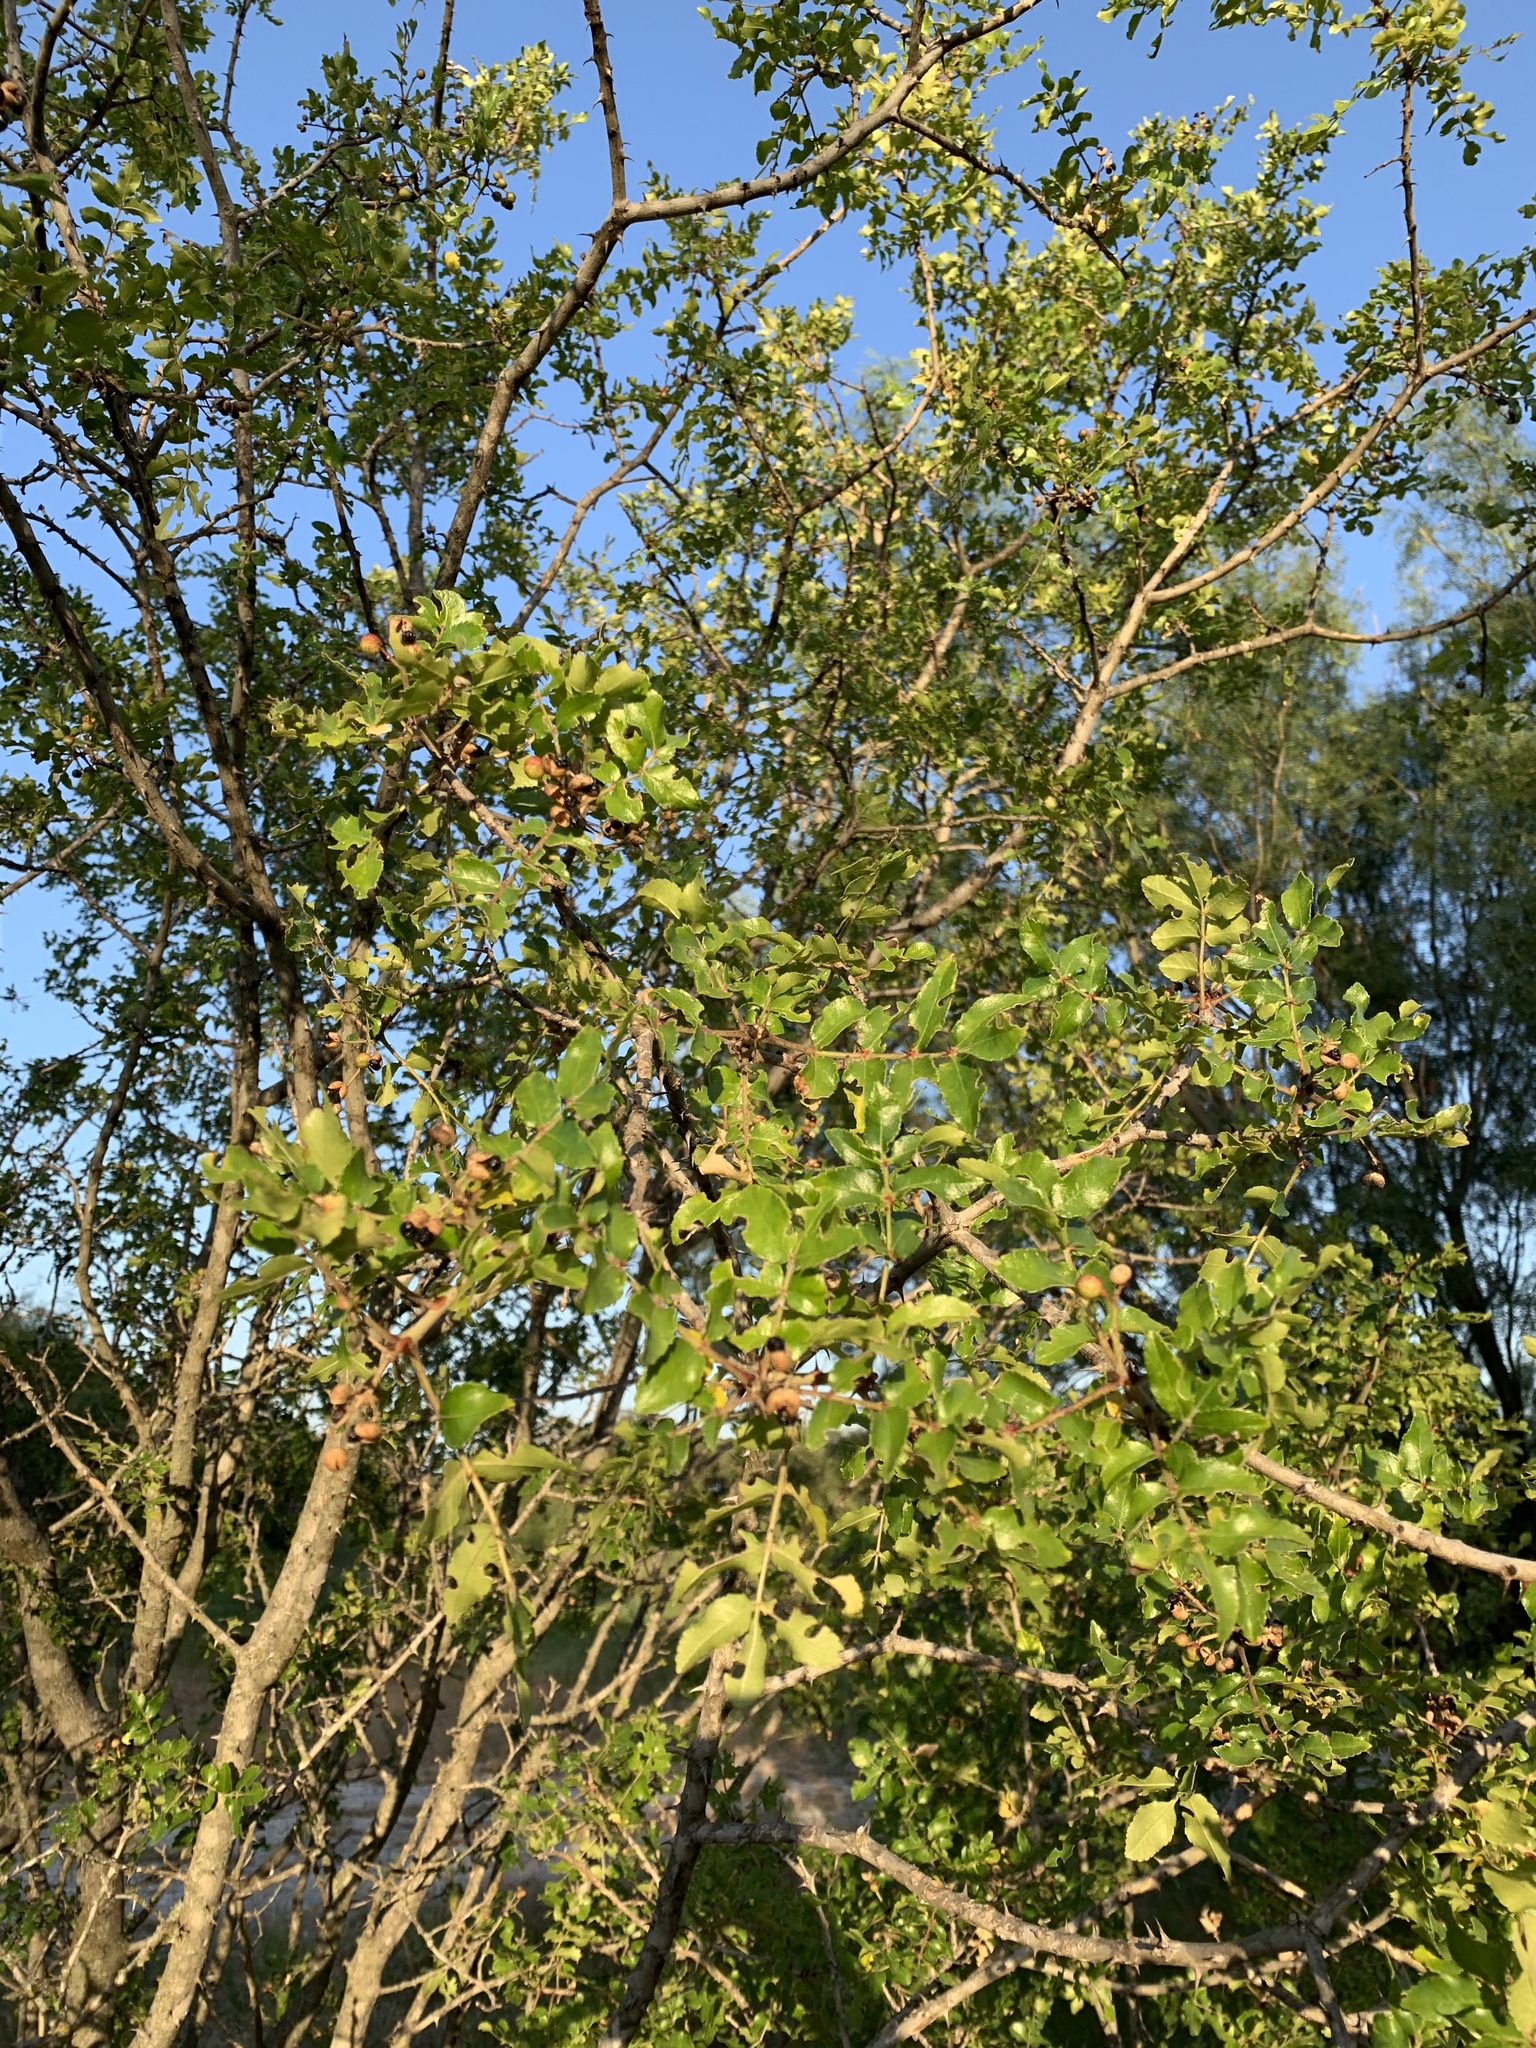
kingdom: Plantae
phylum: Tracheophyta
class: Magnoliopsida
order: Sapindales
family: Rutaceae
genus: Zanthoxylum
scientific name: Zanthoxylum clava-herculis
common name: Hercules'-club
